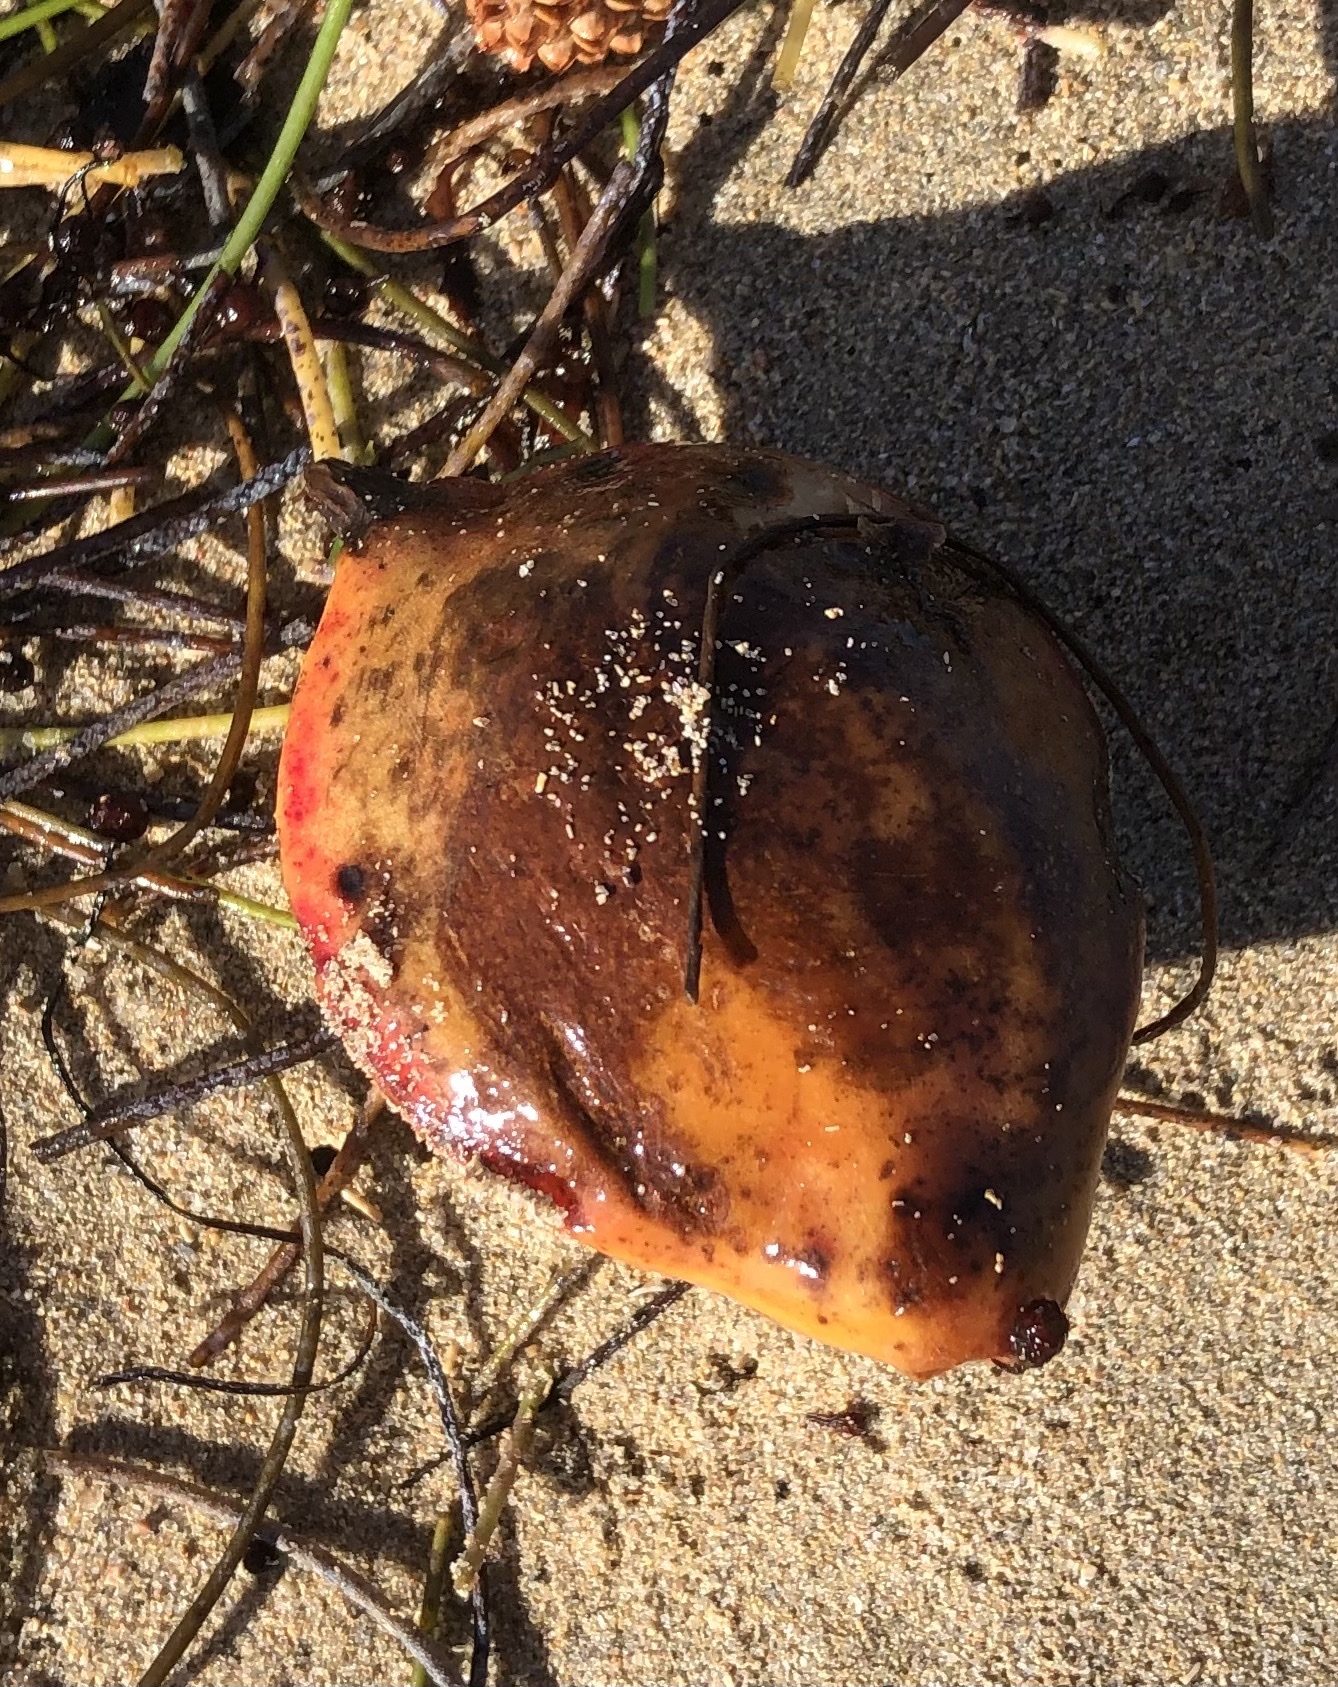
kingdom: Plantae
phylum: Tracheophyta
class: Magnoliopsida
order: Myrtales
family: Combretaceae
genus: Terminalia
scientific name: Terminalia catappa
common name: Tropical almond
